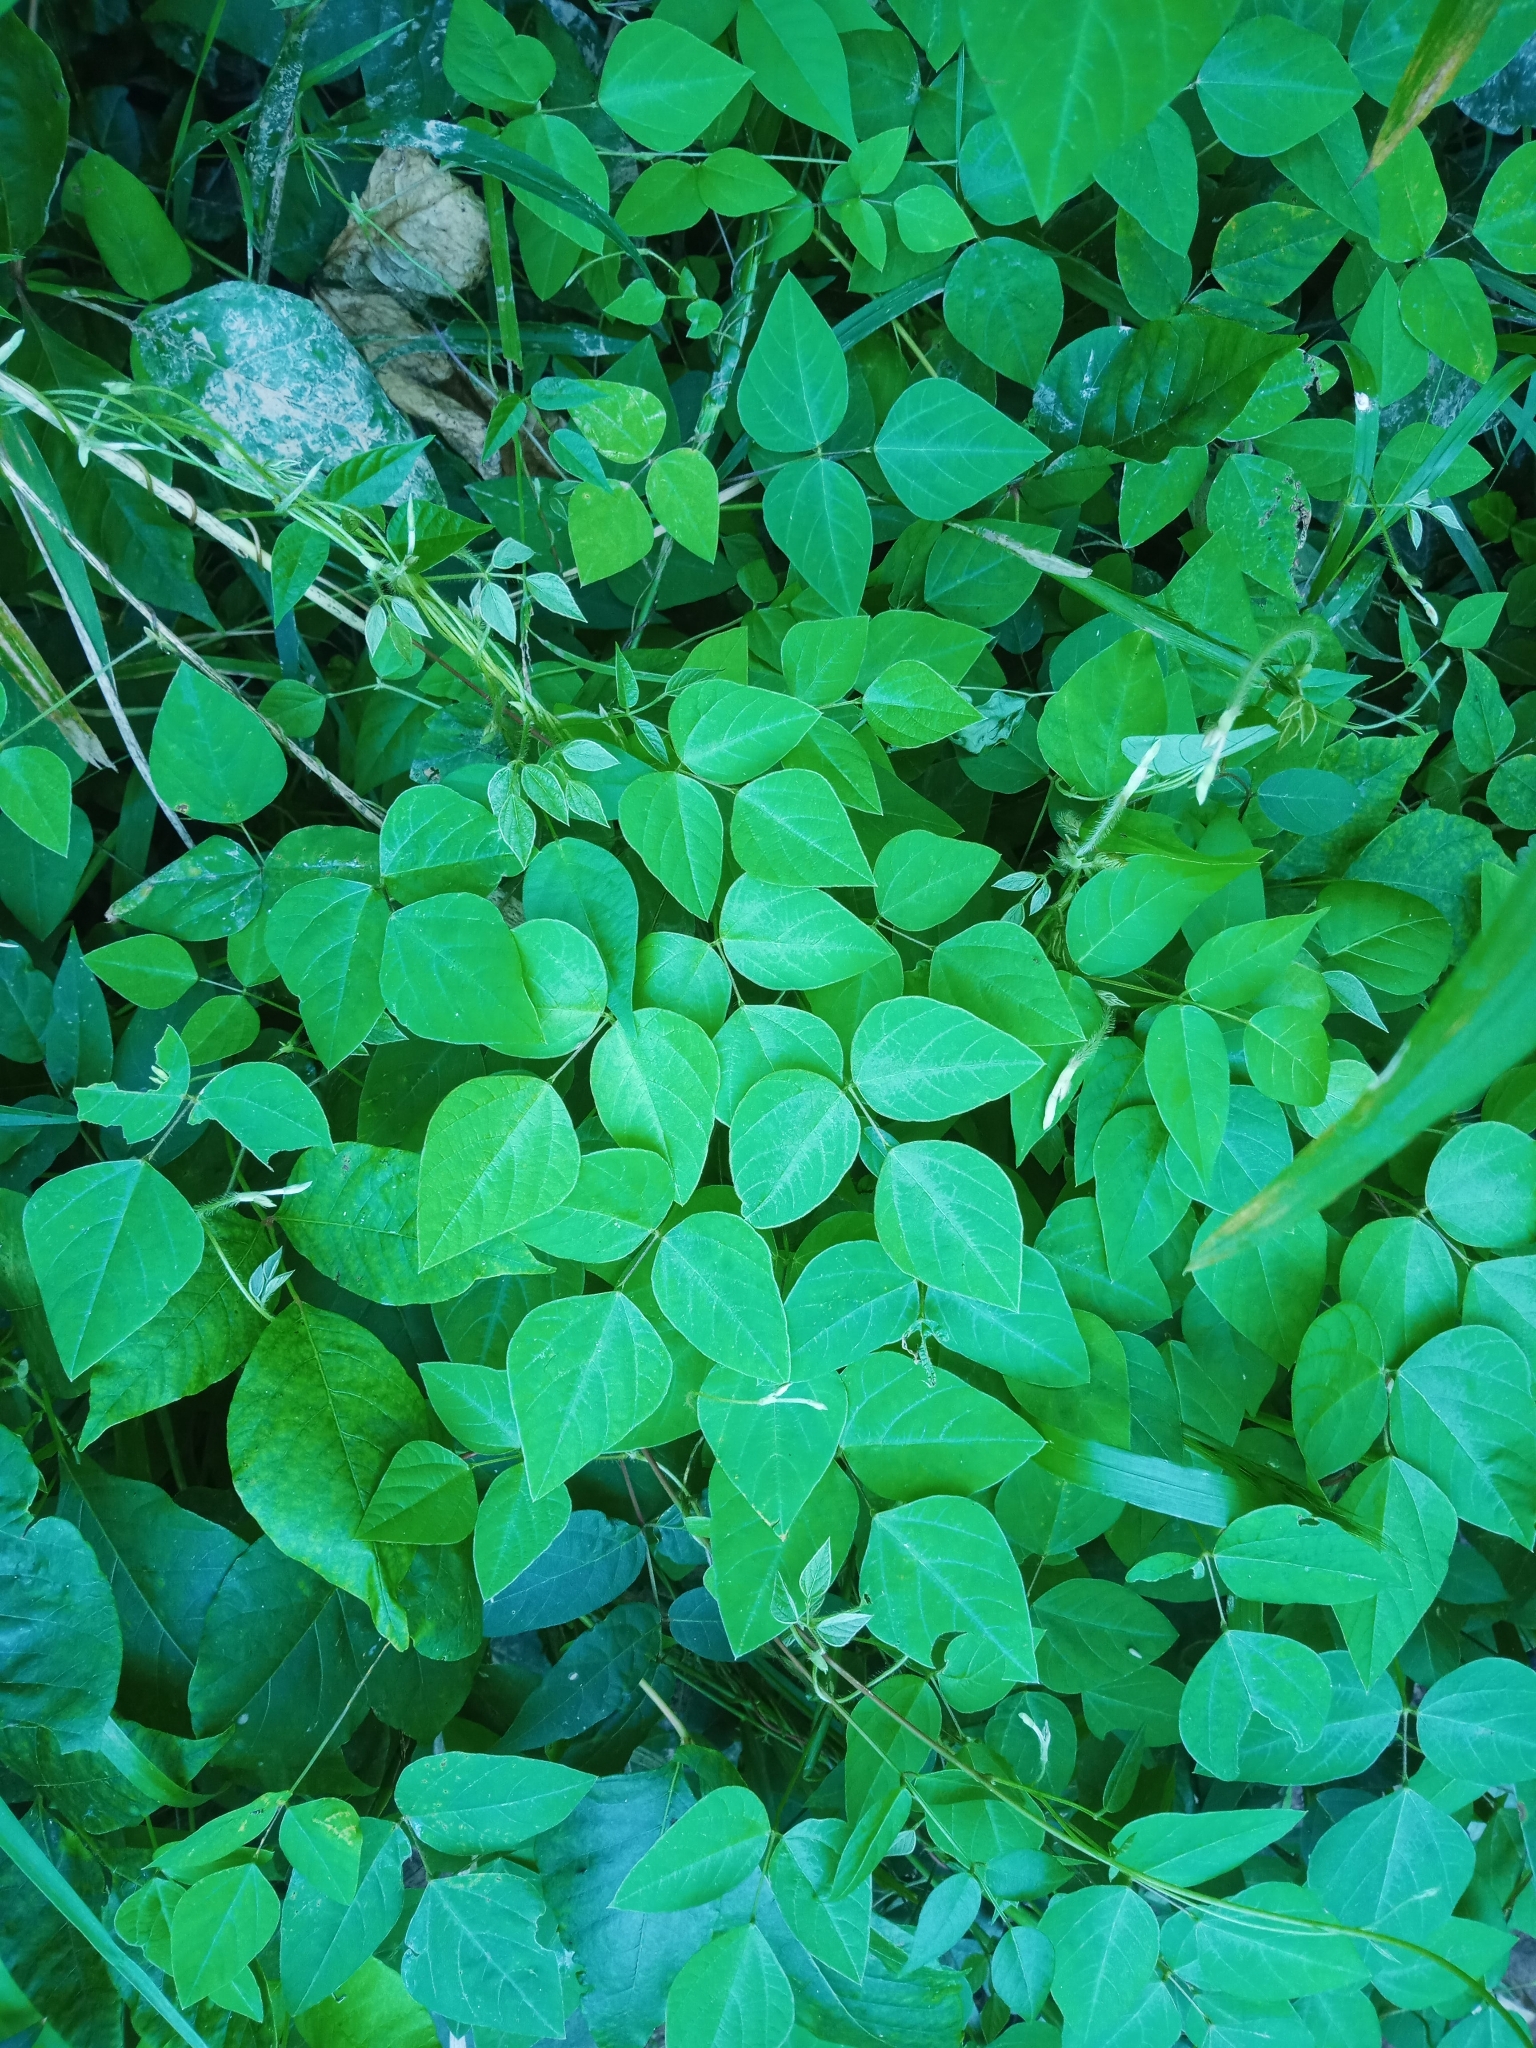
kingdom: Plantae
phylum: Tracheophyta
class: Magnoliopsida
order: Fabales
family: Fabaceae
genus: Amphicarpaea
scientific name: Amphicarpaea bracteata
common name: American hog peanut
